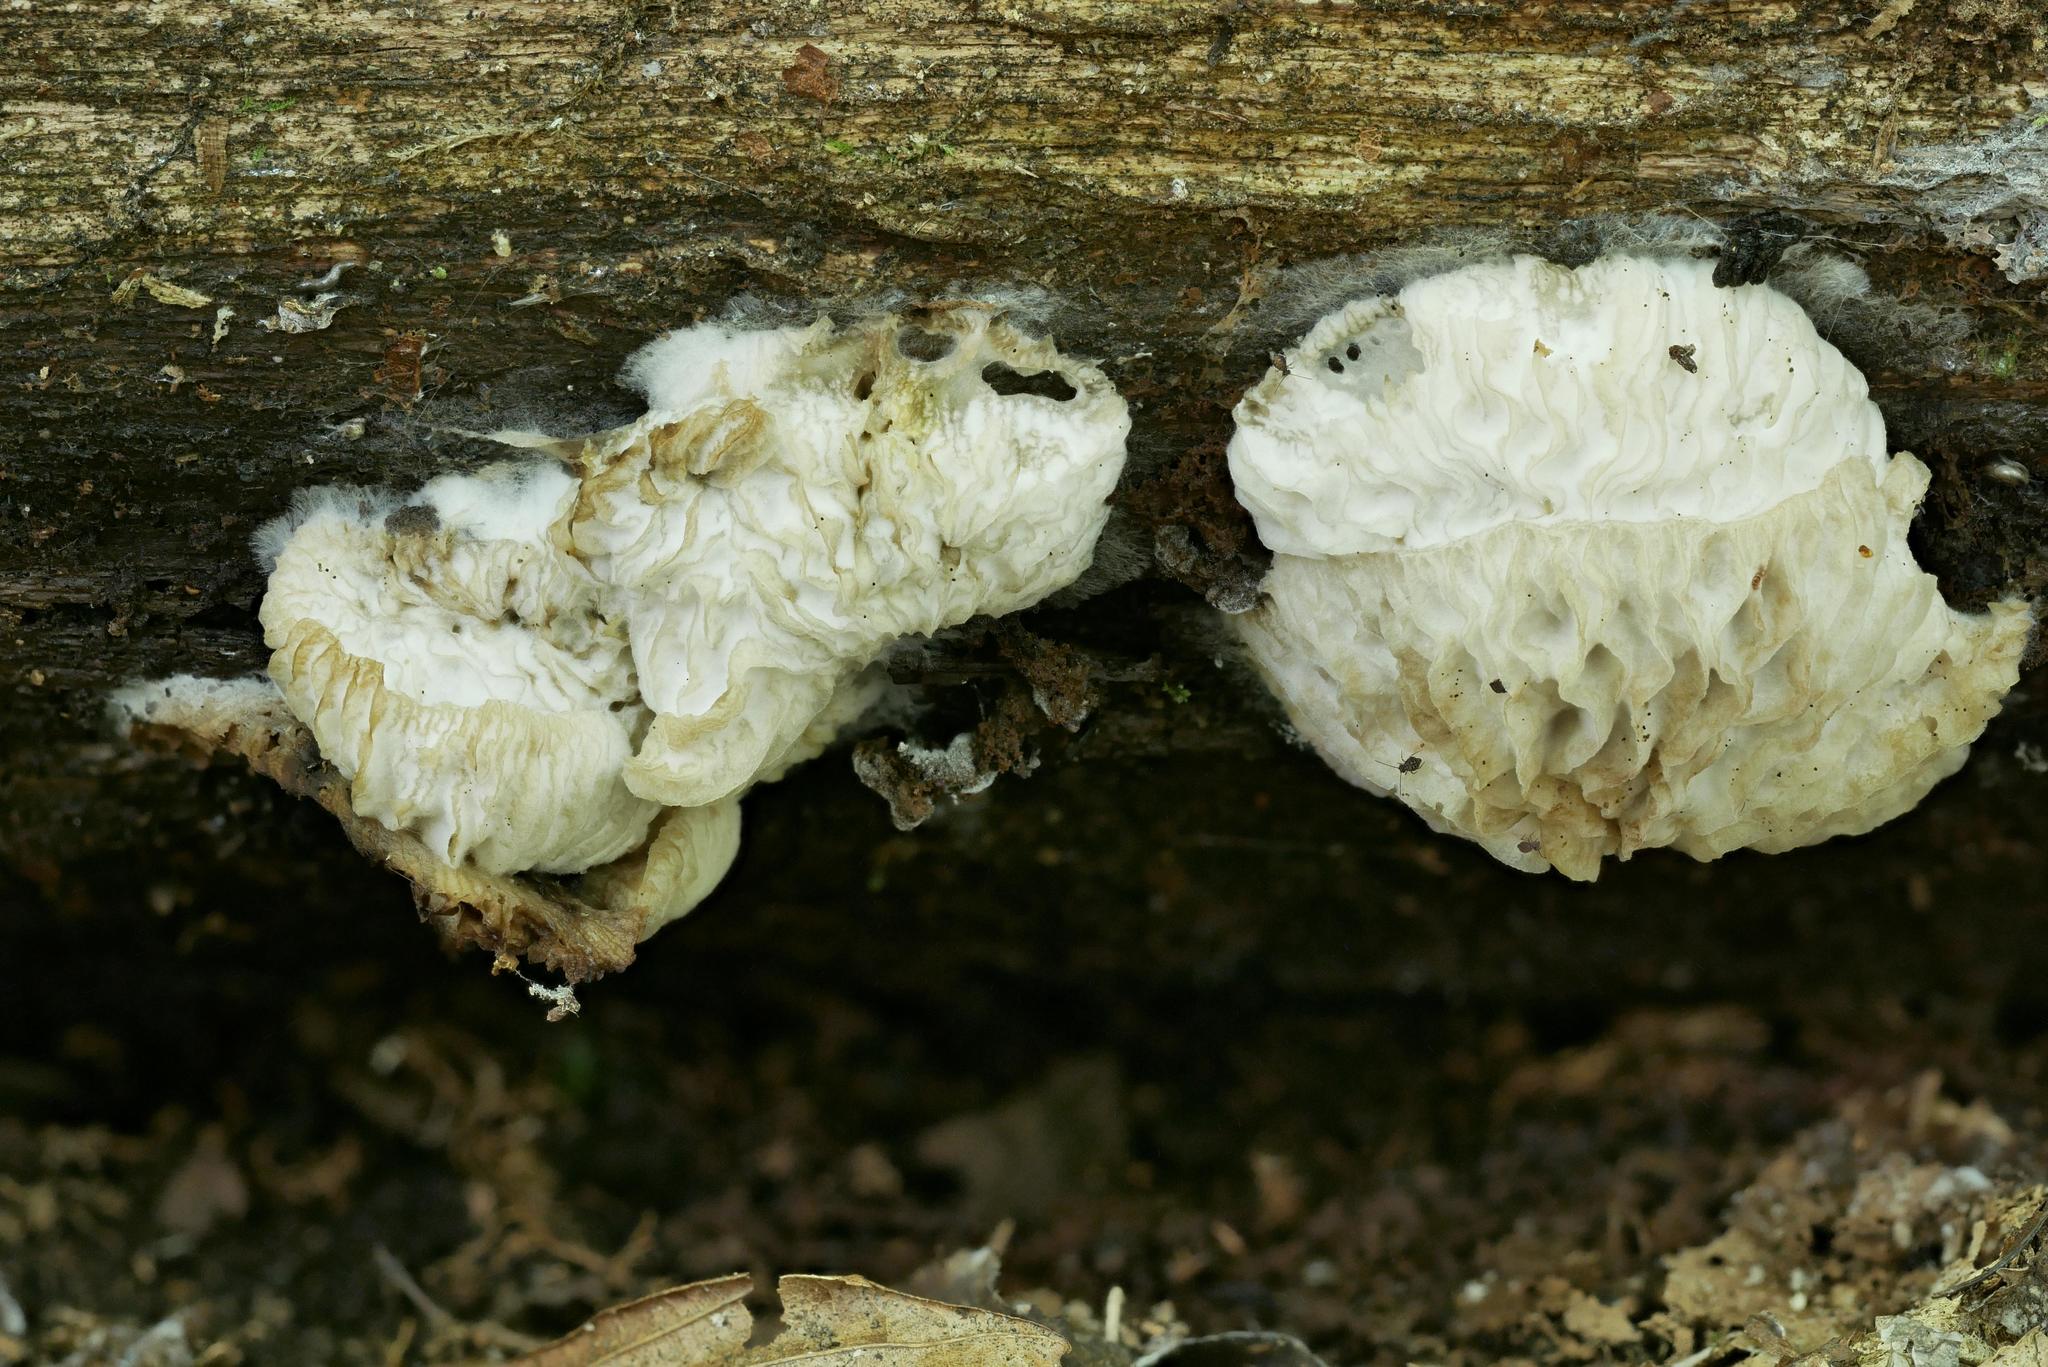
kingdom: Fungi
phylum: Ascomycota
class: Sordariomycetes
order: Hypocreales
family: Bionectriaceae
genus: Nectriopsis
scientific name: Nectriopsis tremellicola
